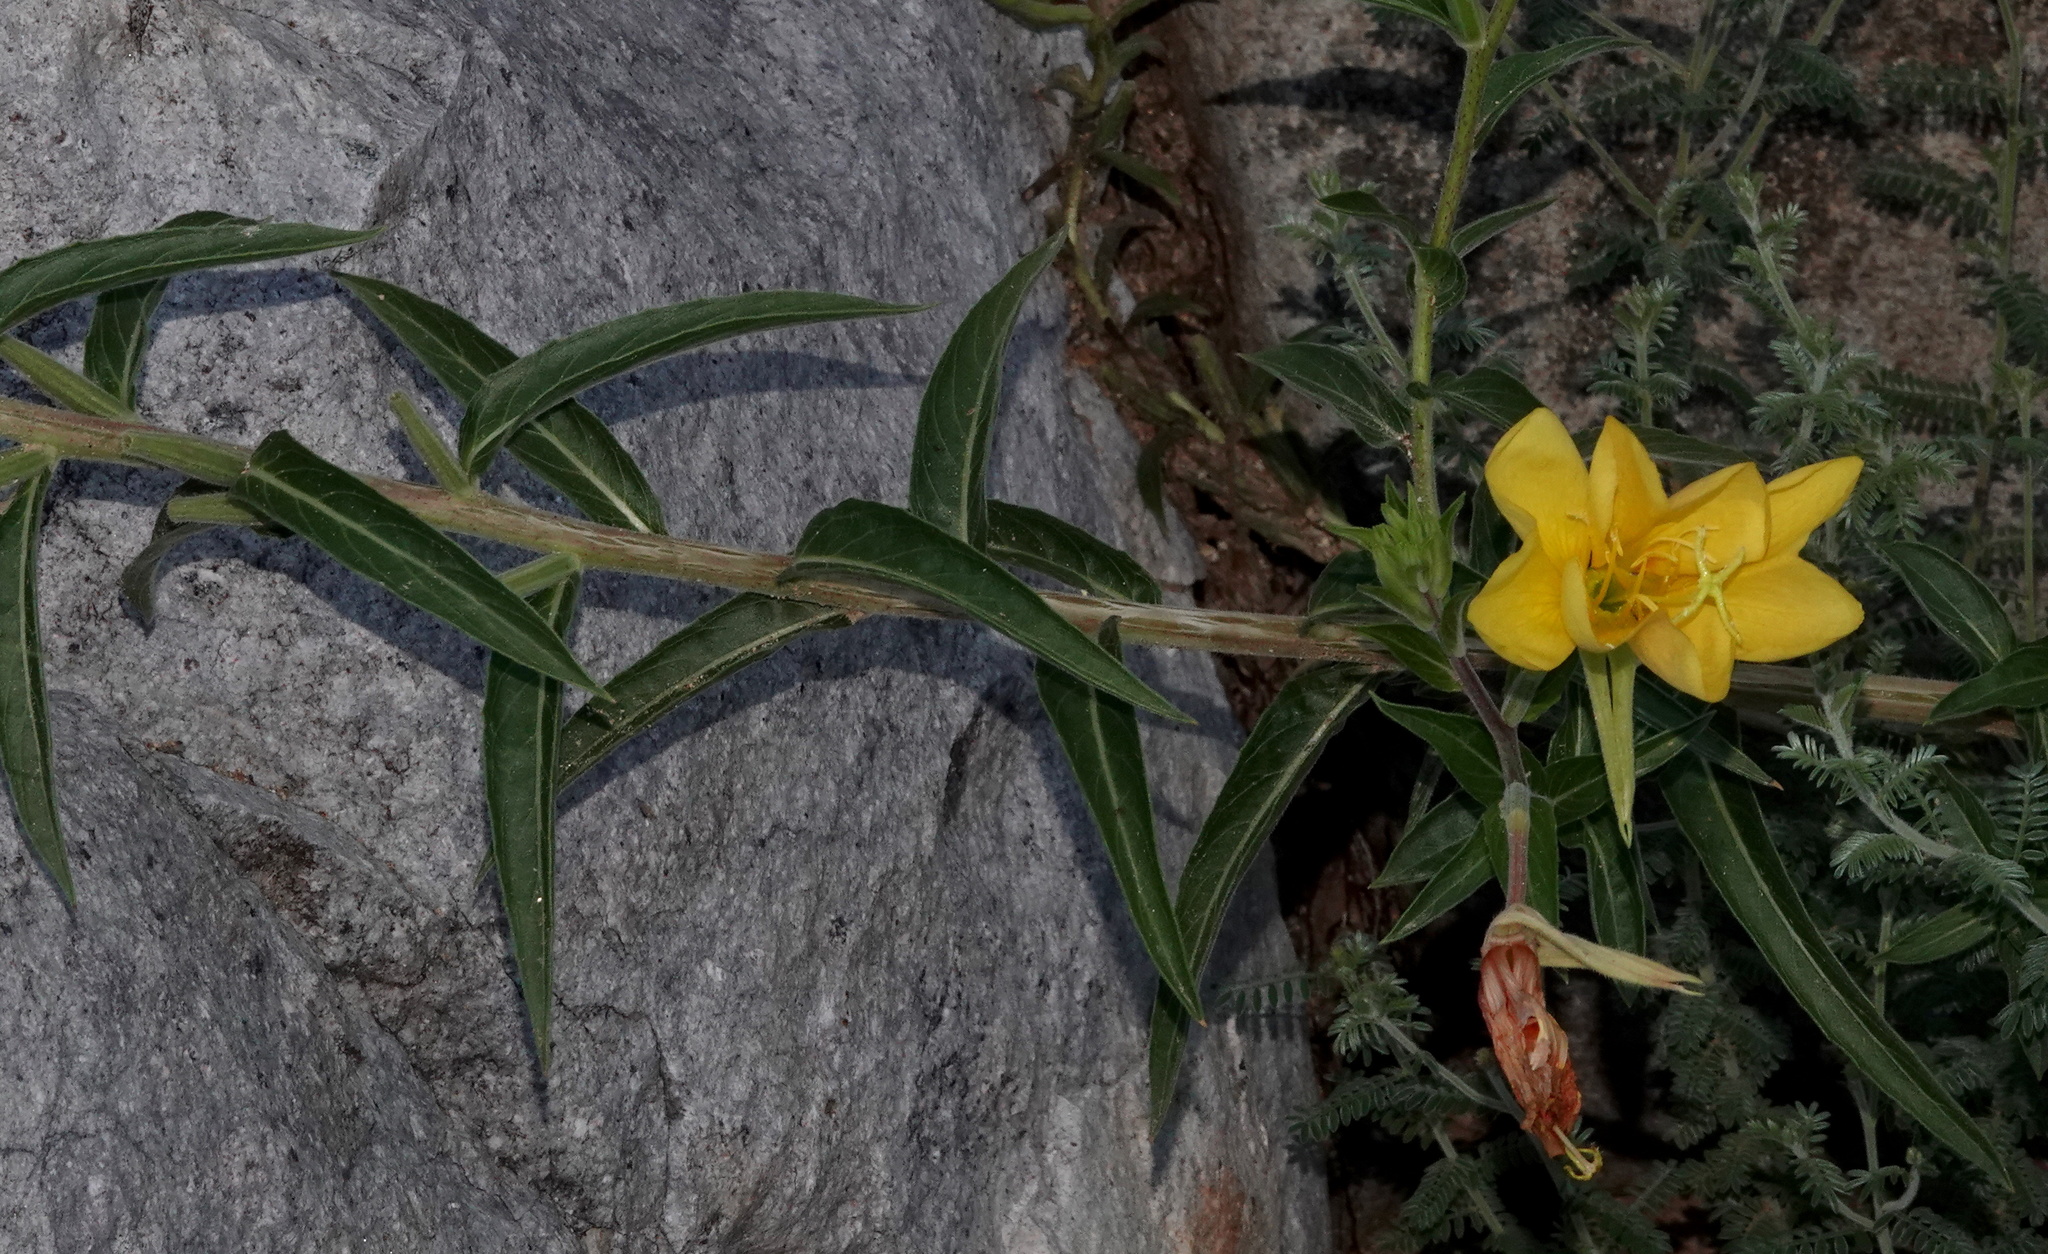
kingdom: Plantae
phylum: Tracheophyta
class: Magnoliopsida
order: Myrtales
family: Onagraceae
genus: Oenothera
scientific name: Oenothera elata
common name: Hooker's evening-primrose
